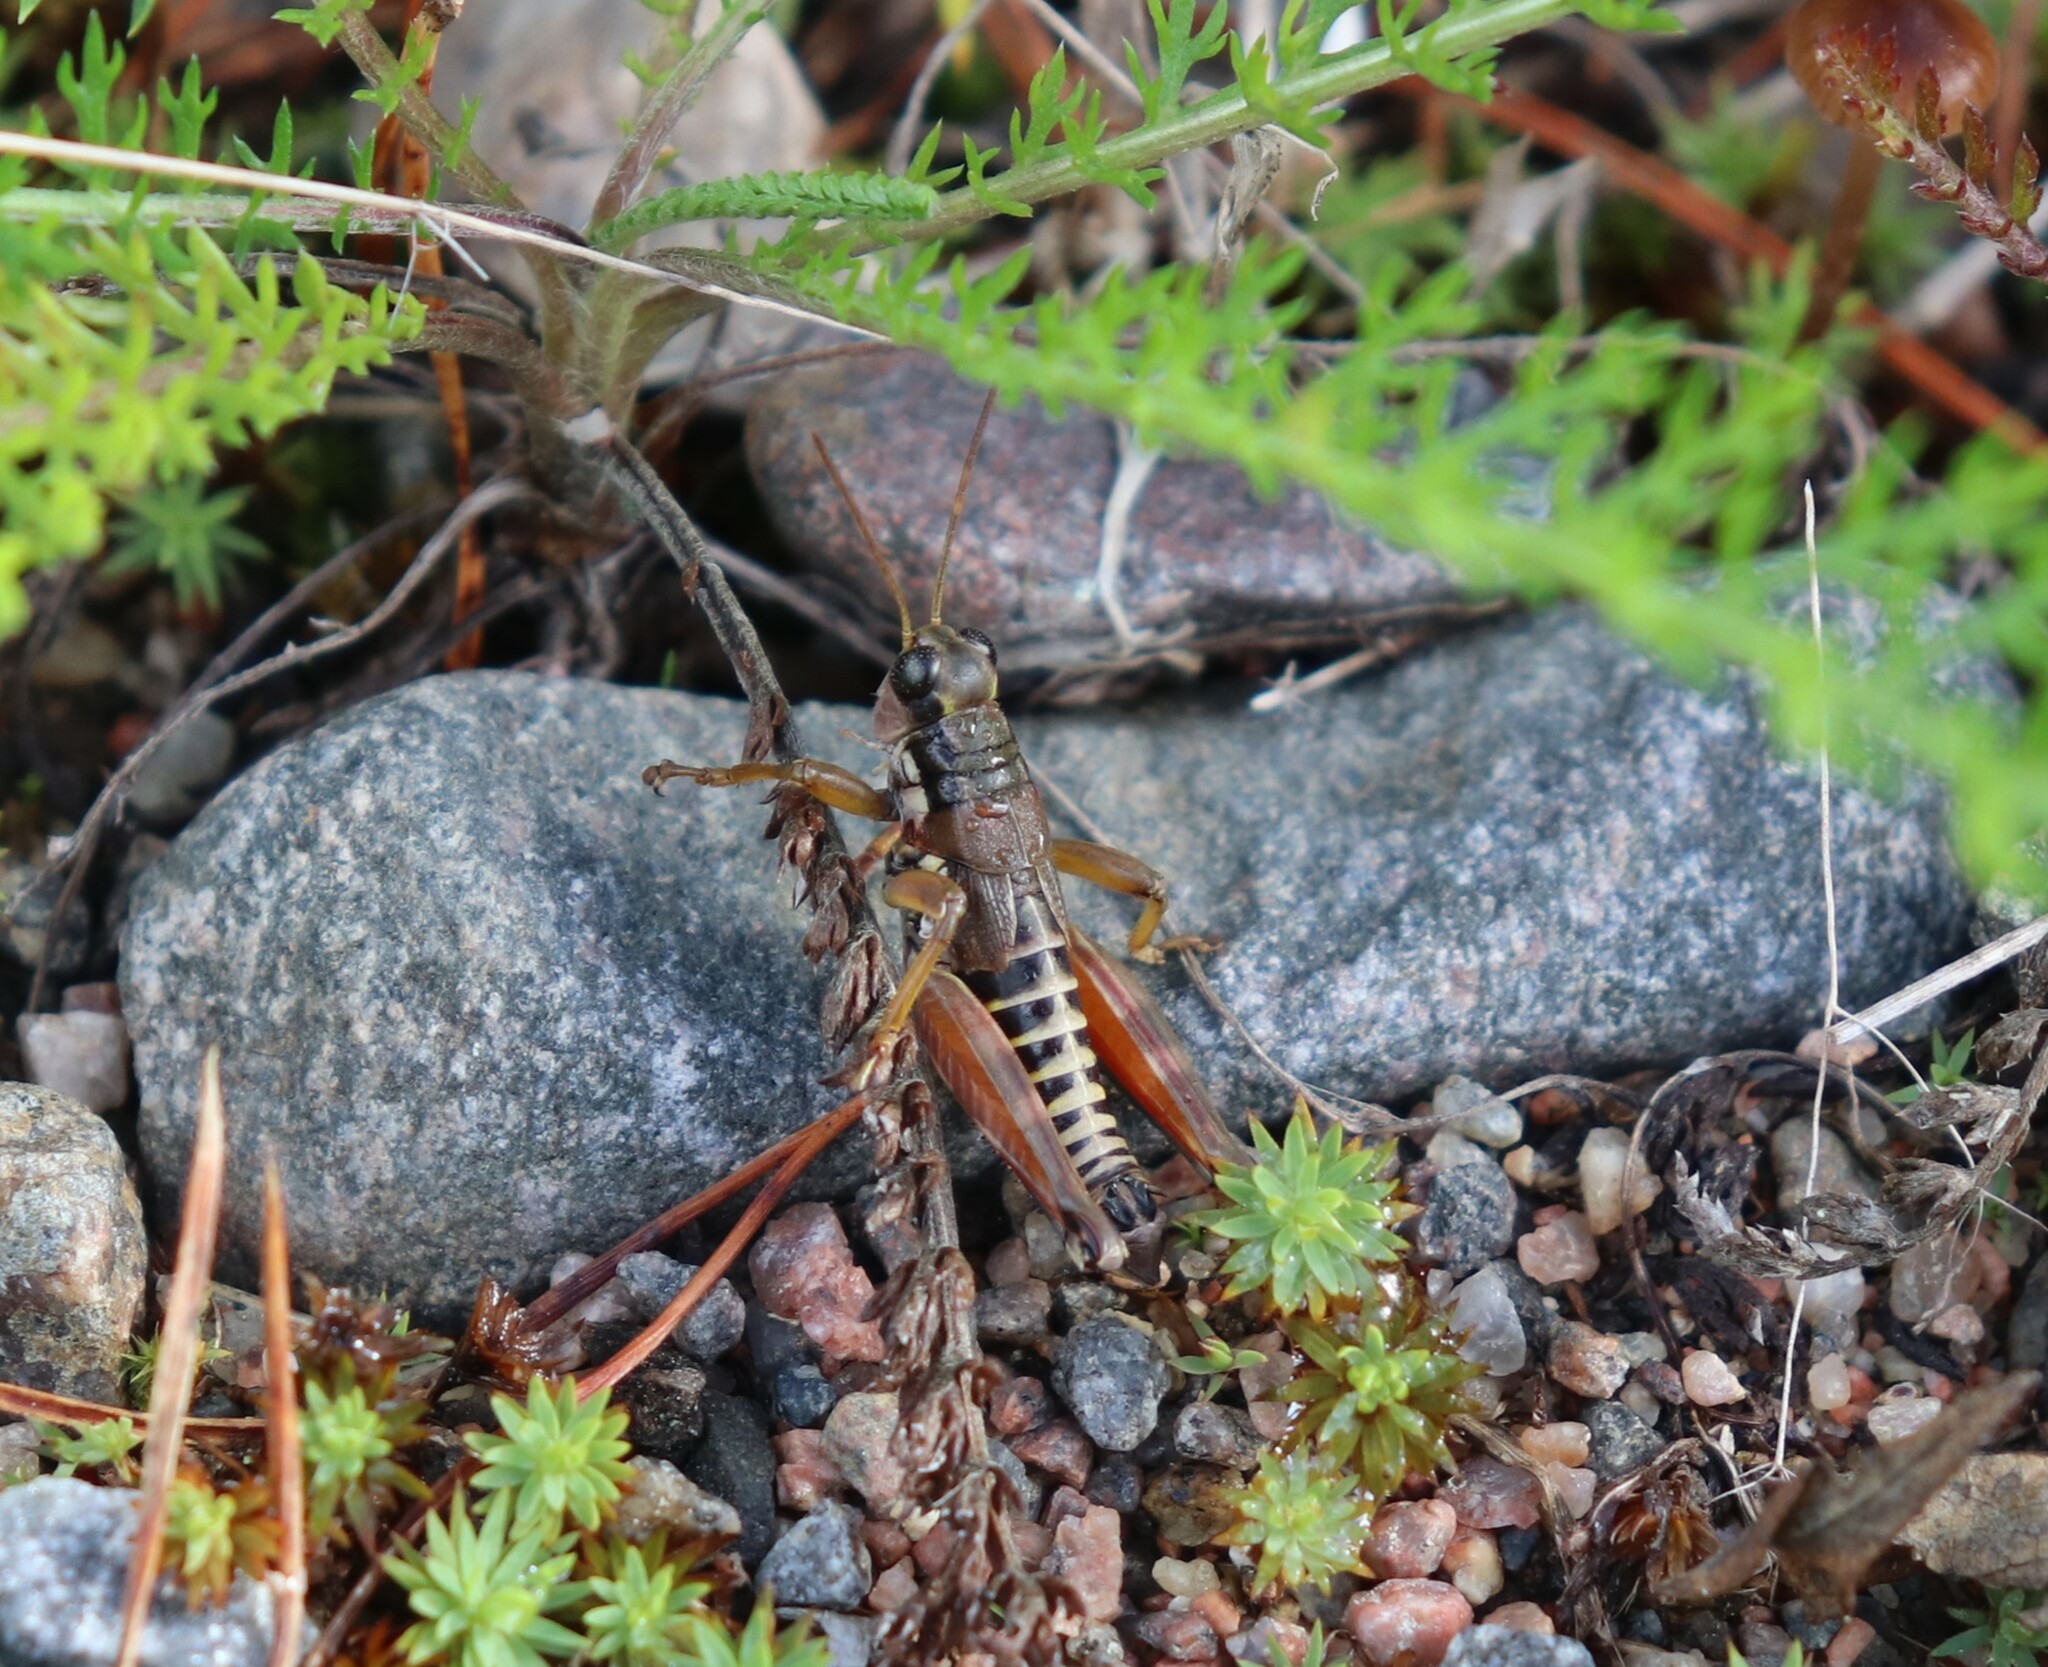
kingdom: Animalia
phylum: Arthropoda
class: Insecta
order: Orthoptera
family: Acrididae
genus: Podisma
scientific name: Podisma pedestris
